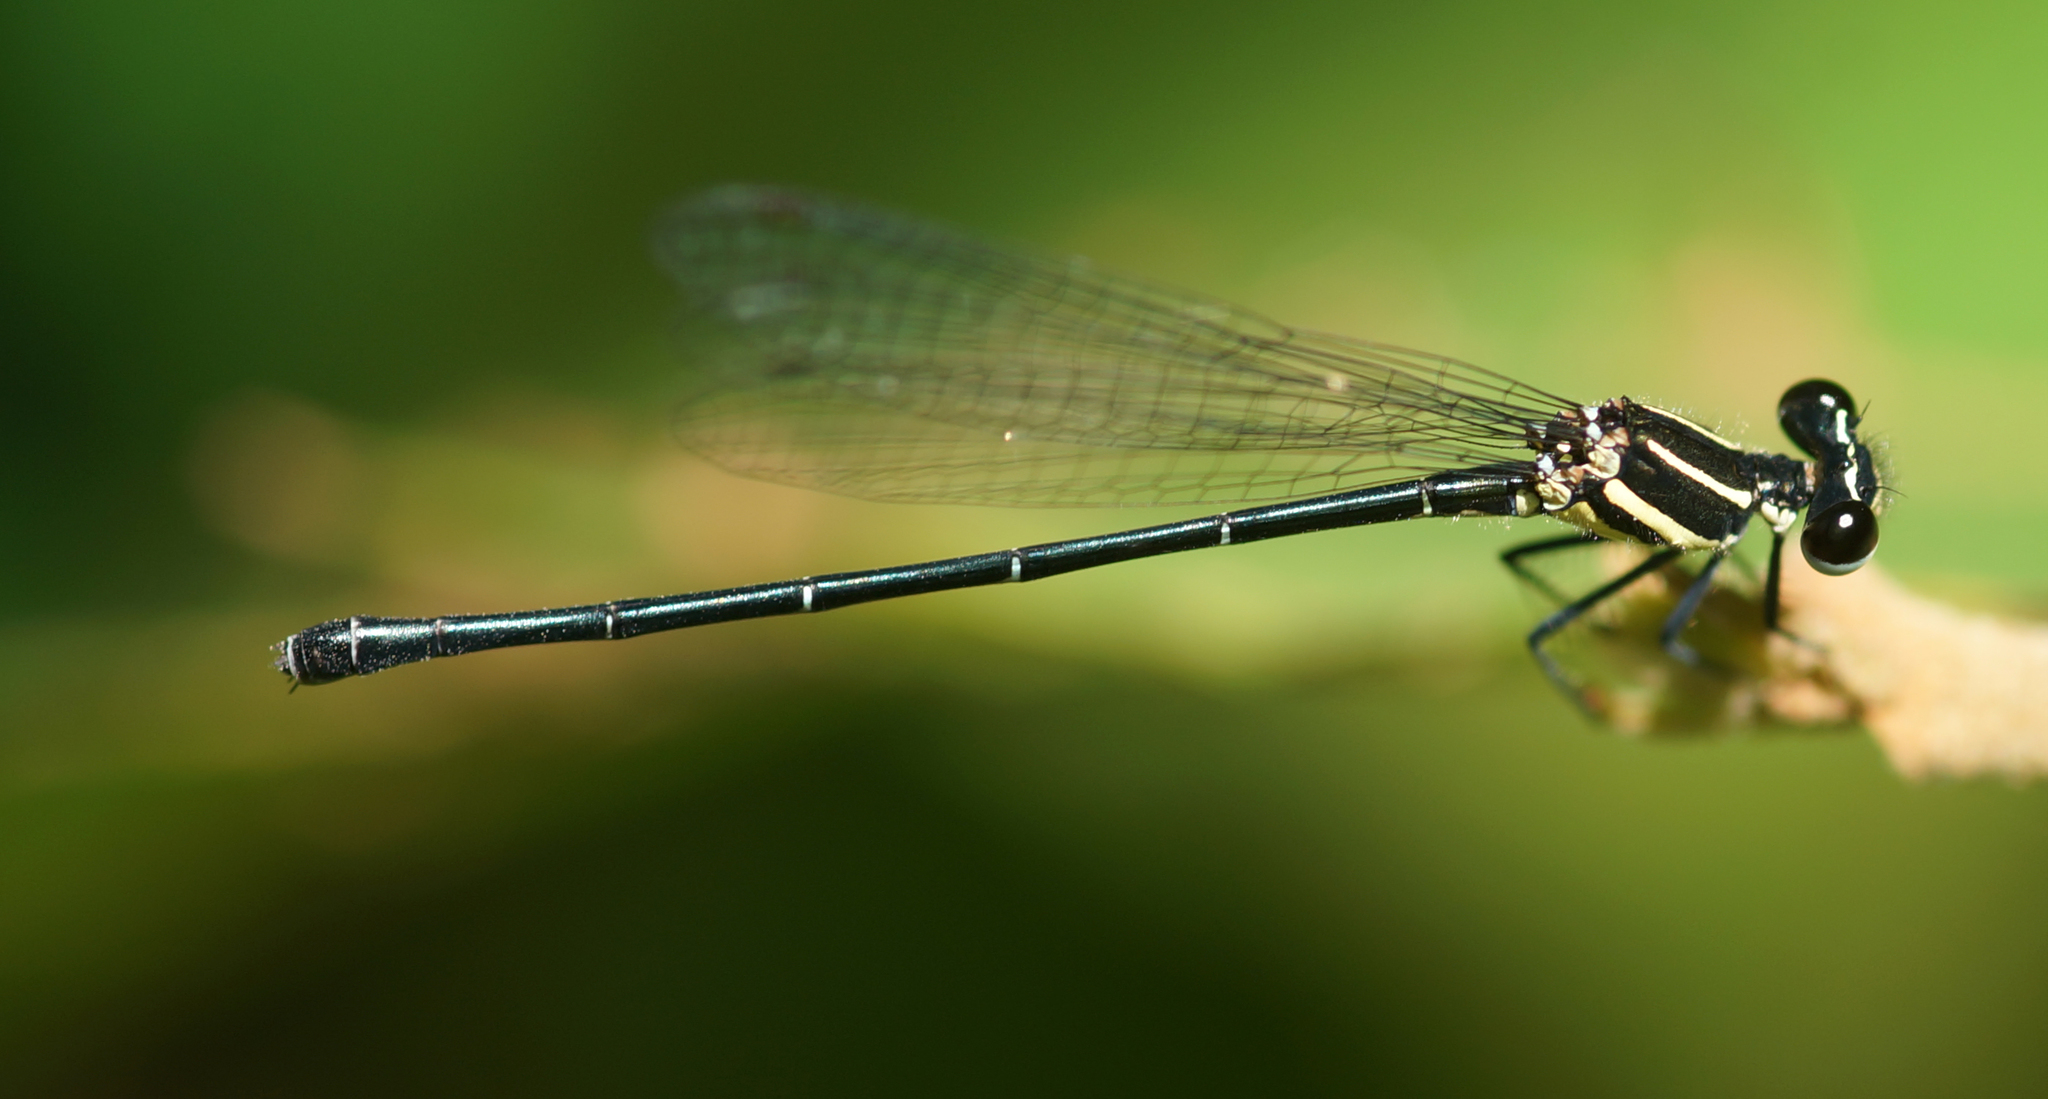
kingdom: Animalia
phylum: Arthropoda
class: Insecta
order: Odonata
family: Platycnemididae
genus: Onychargia
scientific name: Onychargia atrocyana
